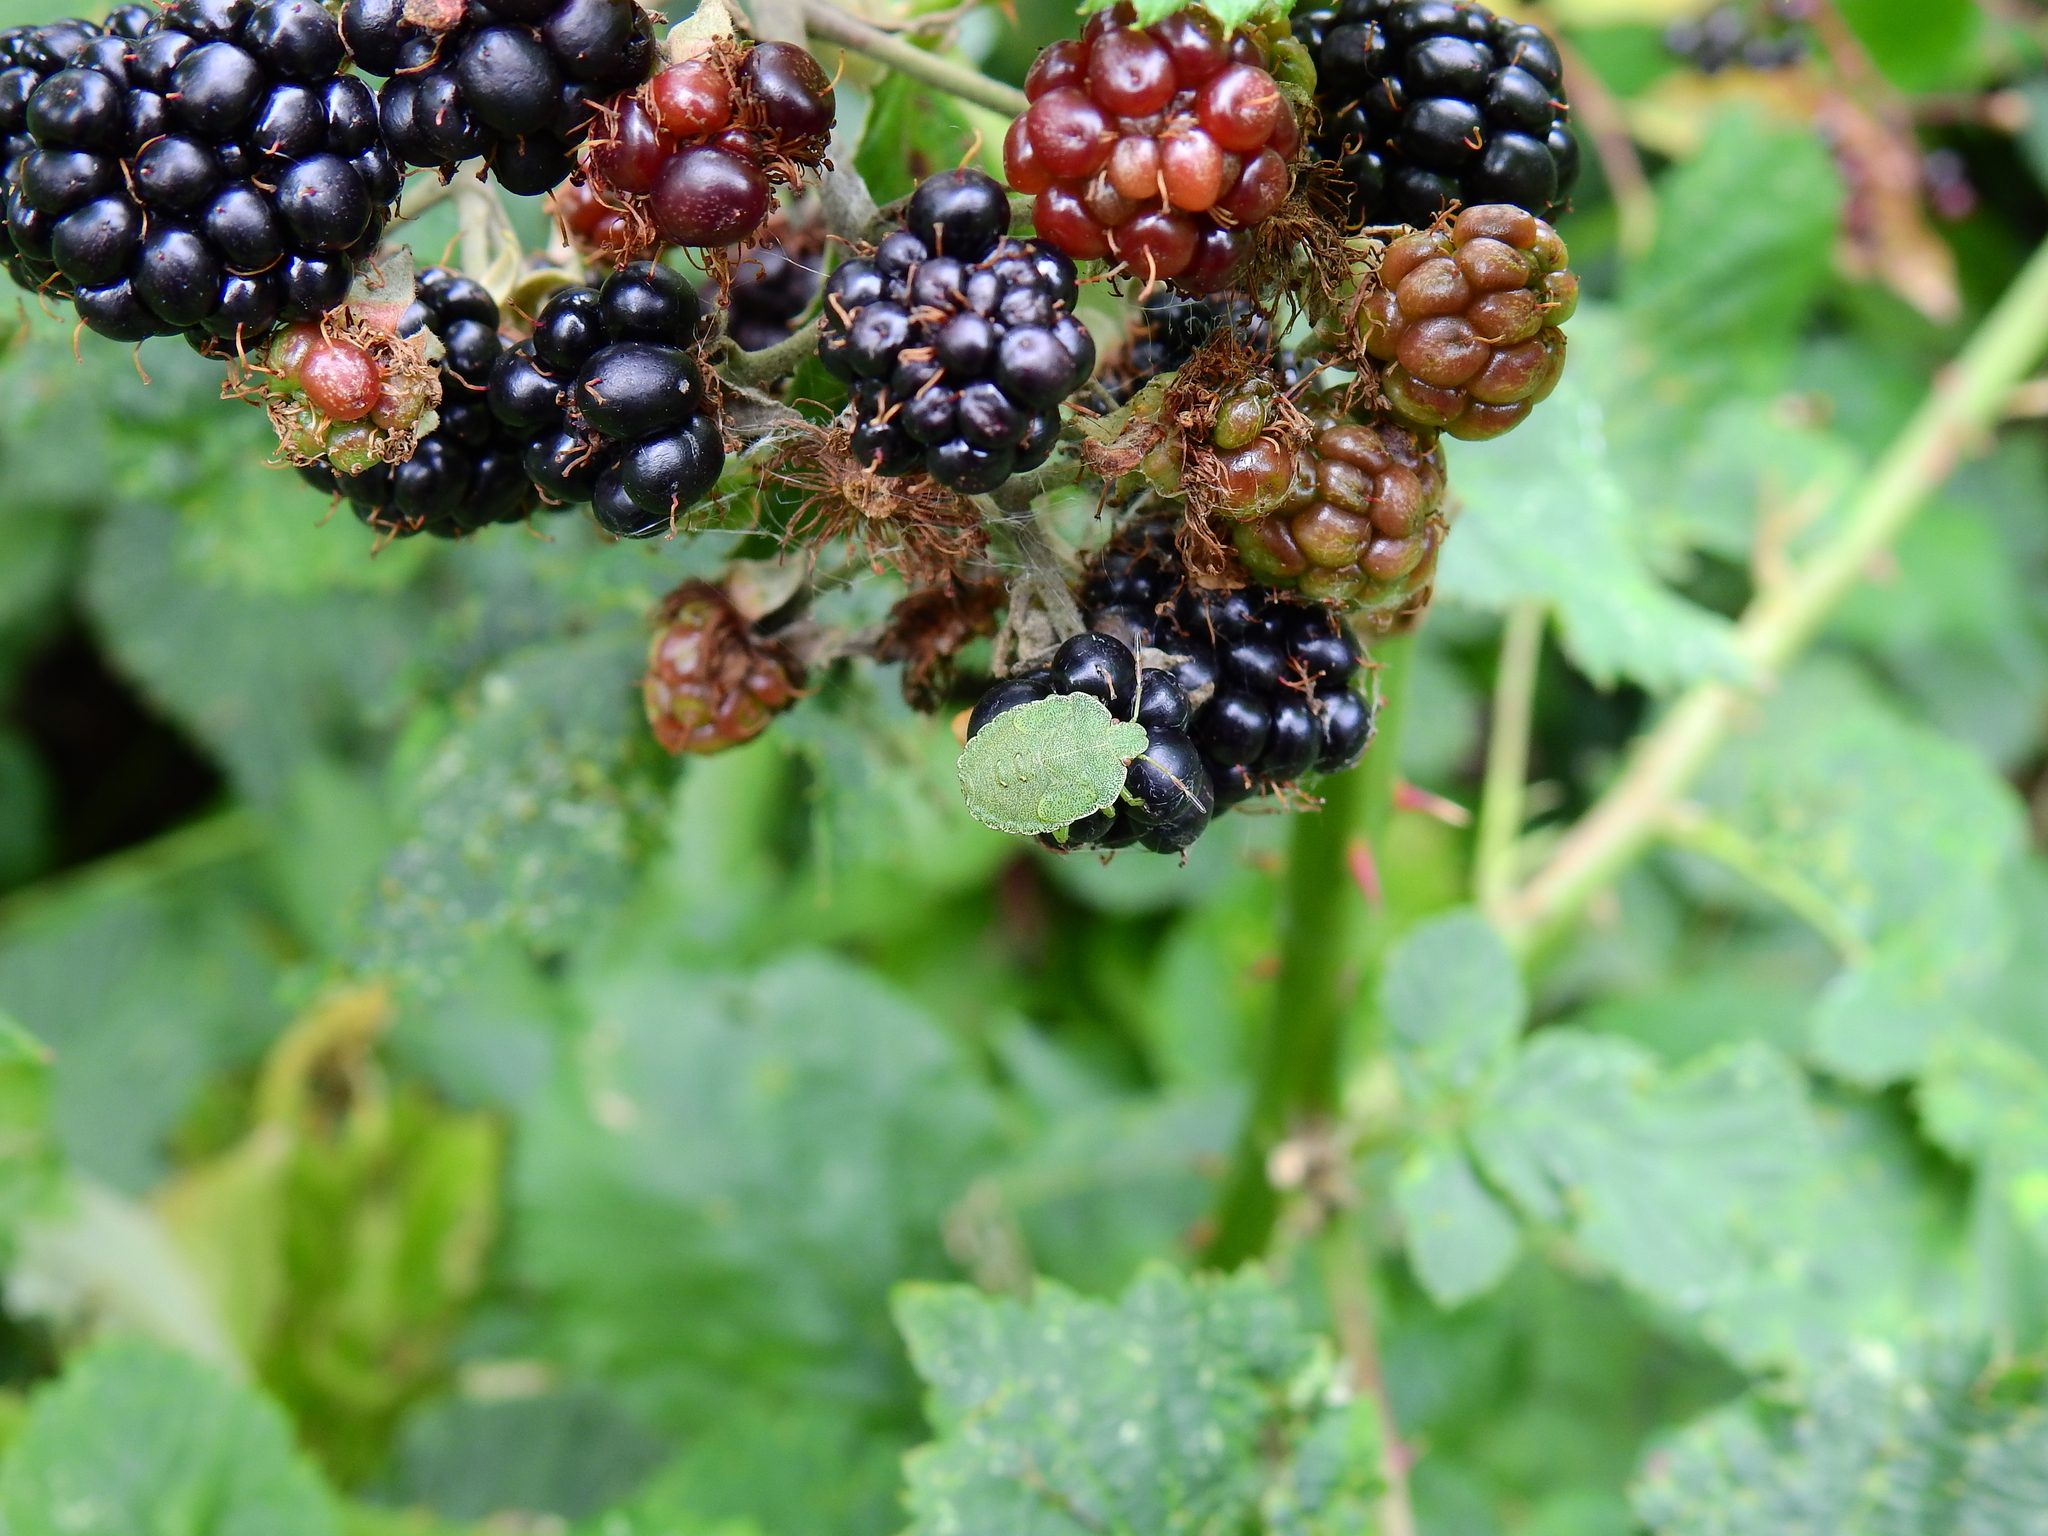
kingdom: Animalia
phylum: Arthropoda
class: Insecta
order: Hemiptera
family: Pentatomidae
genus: Palomena
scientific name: Palomena prasina
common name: Green shieldbug
